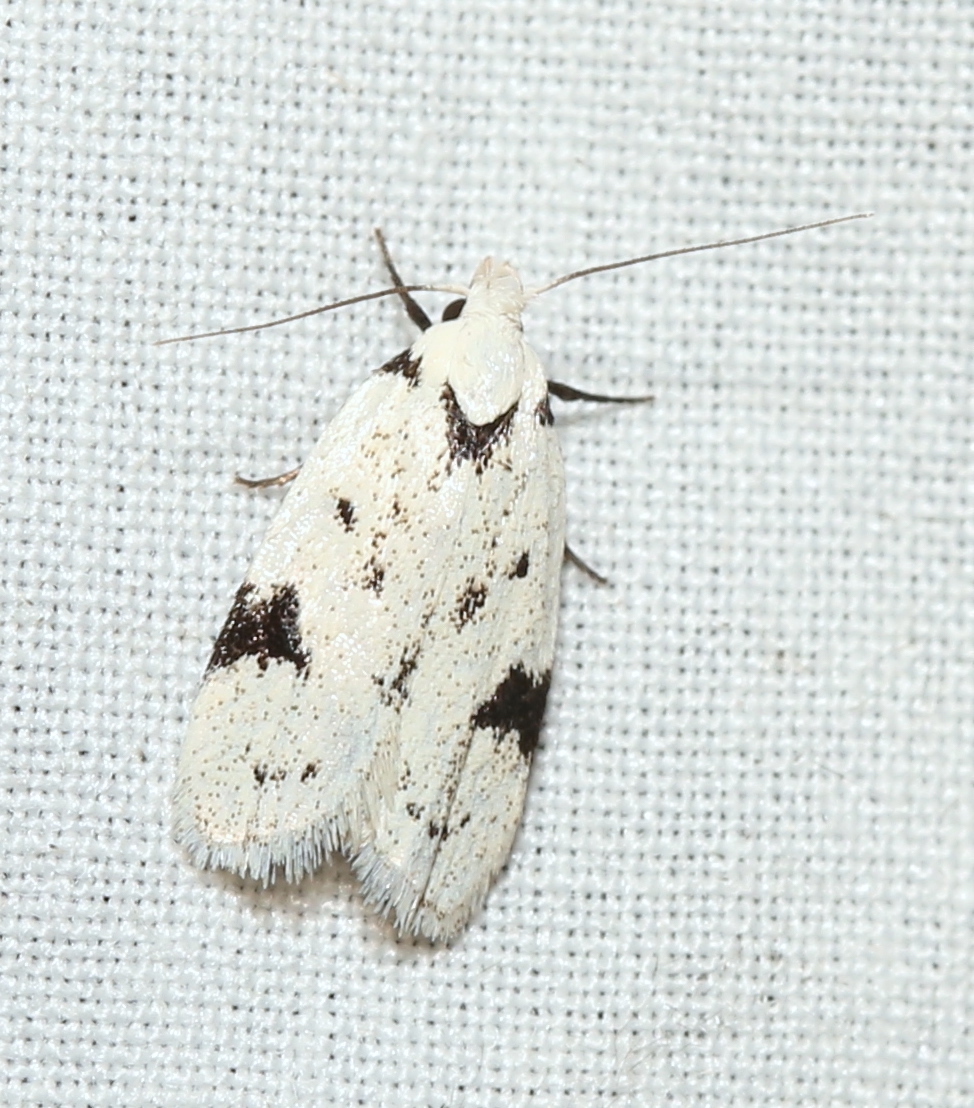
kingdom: Animalia
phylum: Arthropoda
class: Insecta
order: Lepidoptera
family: Oecophoridae
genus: Inga
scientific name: Inga sparsiciliella
